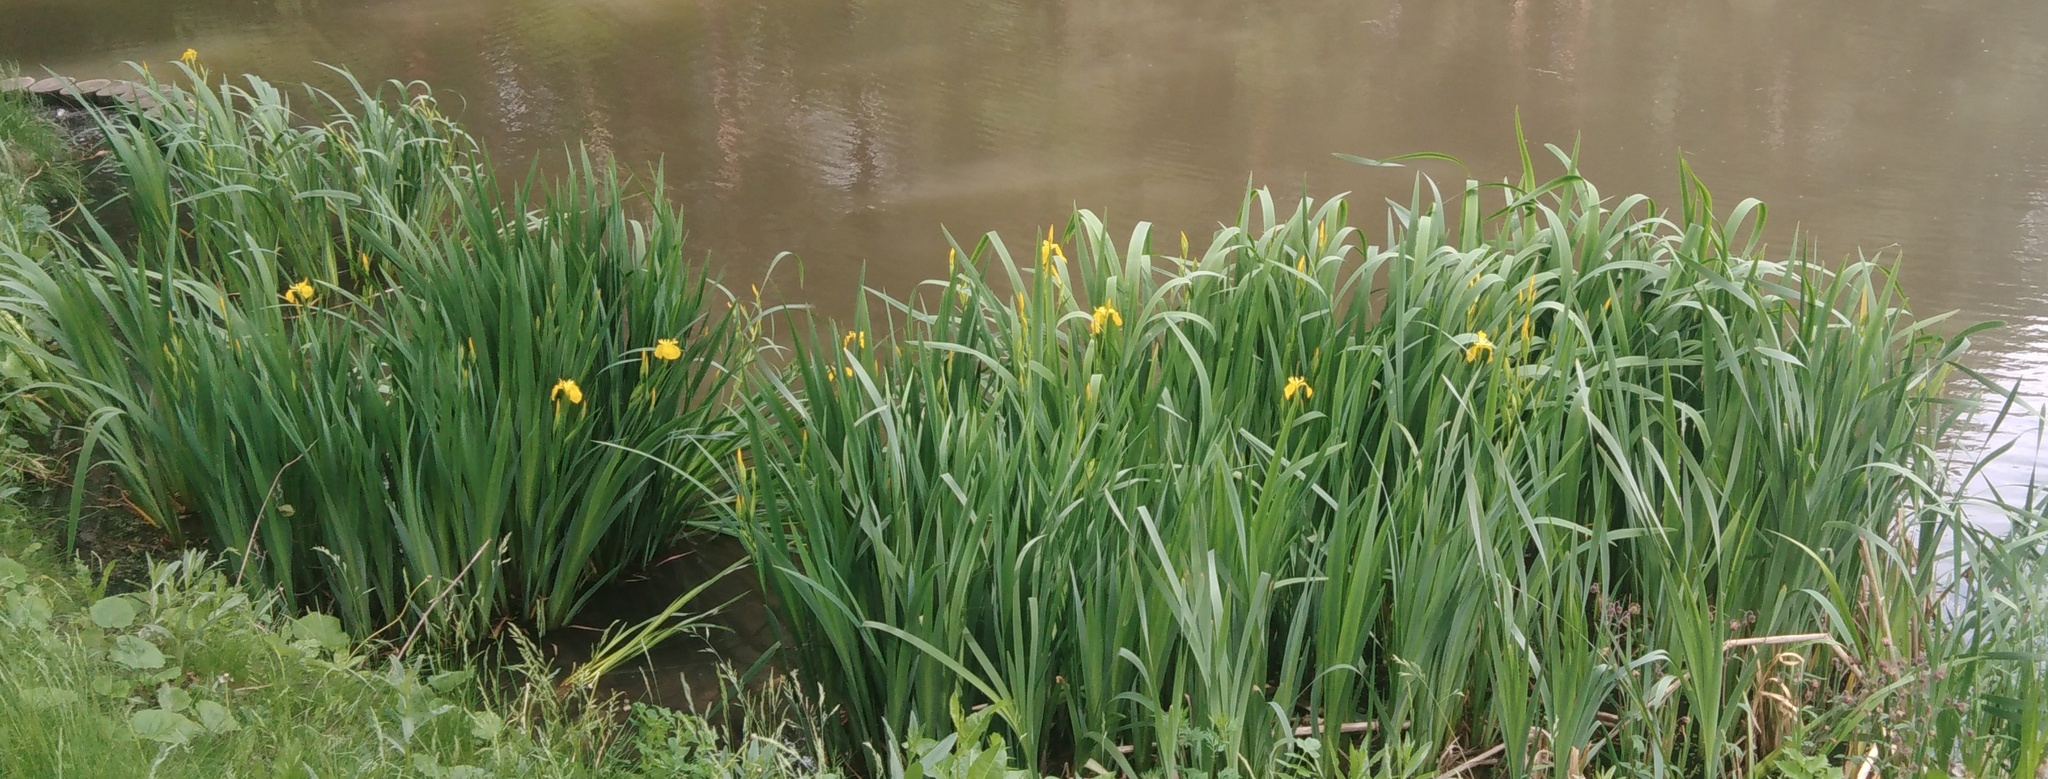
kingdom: Plantae
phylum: Tracheophyta
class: Liliopsida
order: Asparagales
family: Iridaceae
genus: Iris
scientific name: Iris pseudacorus
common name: Yellow flag
